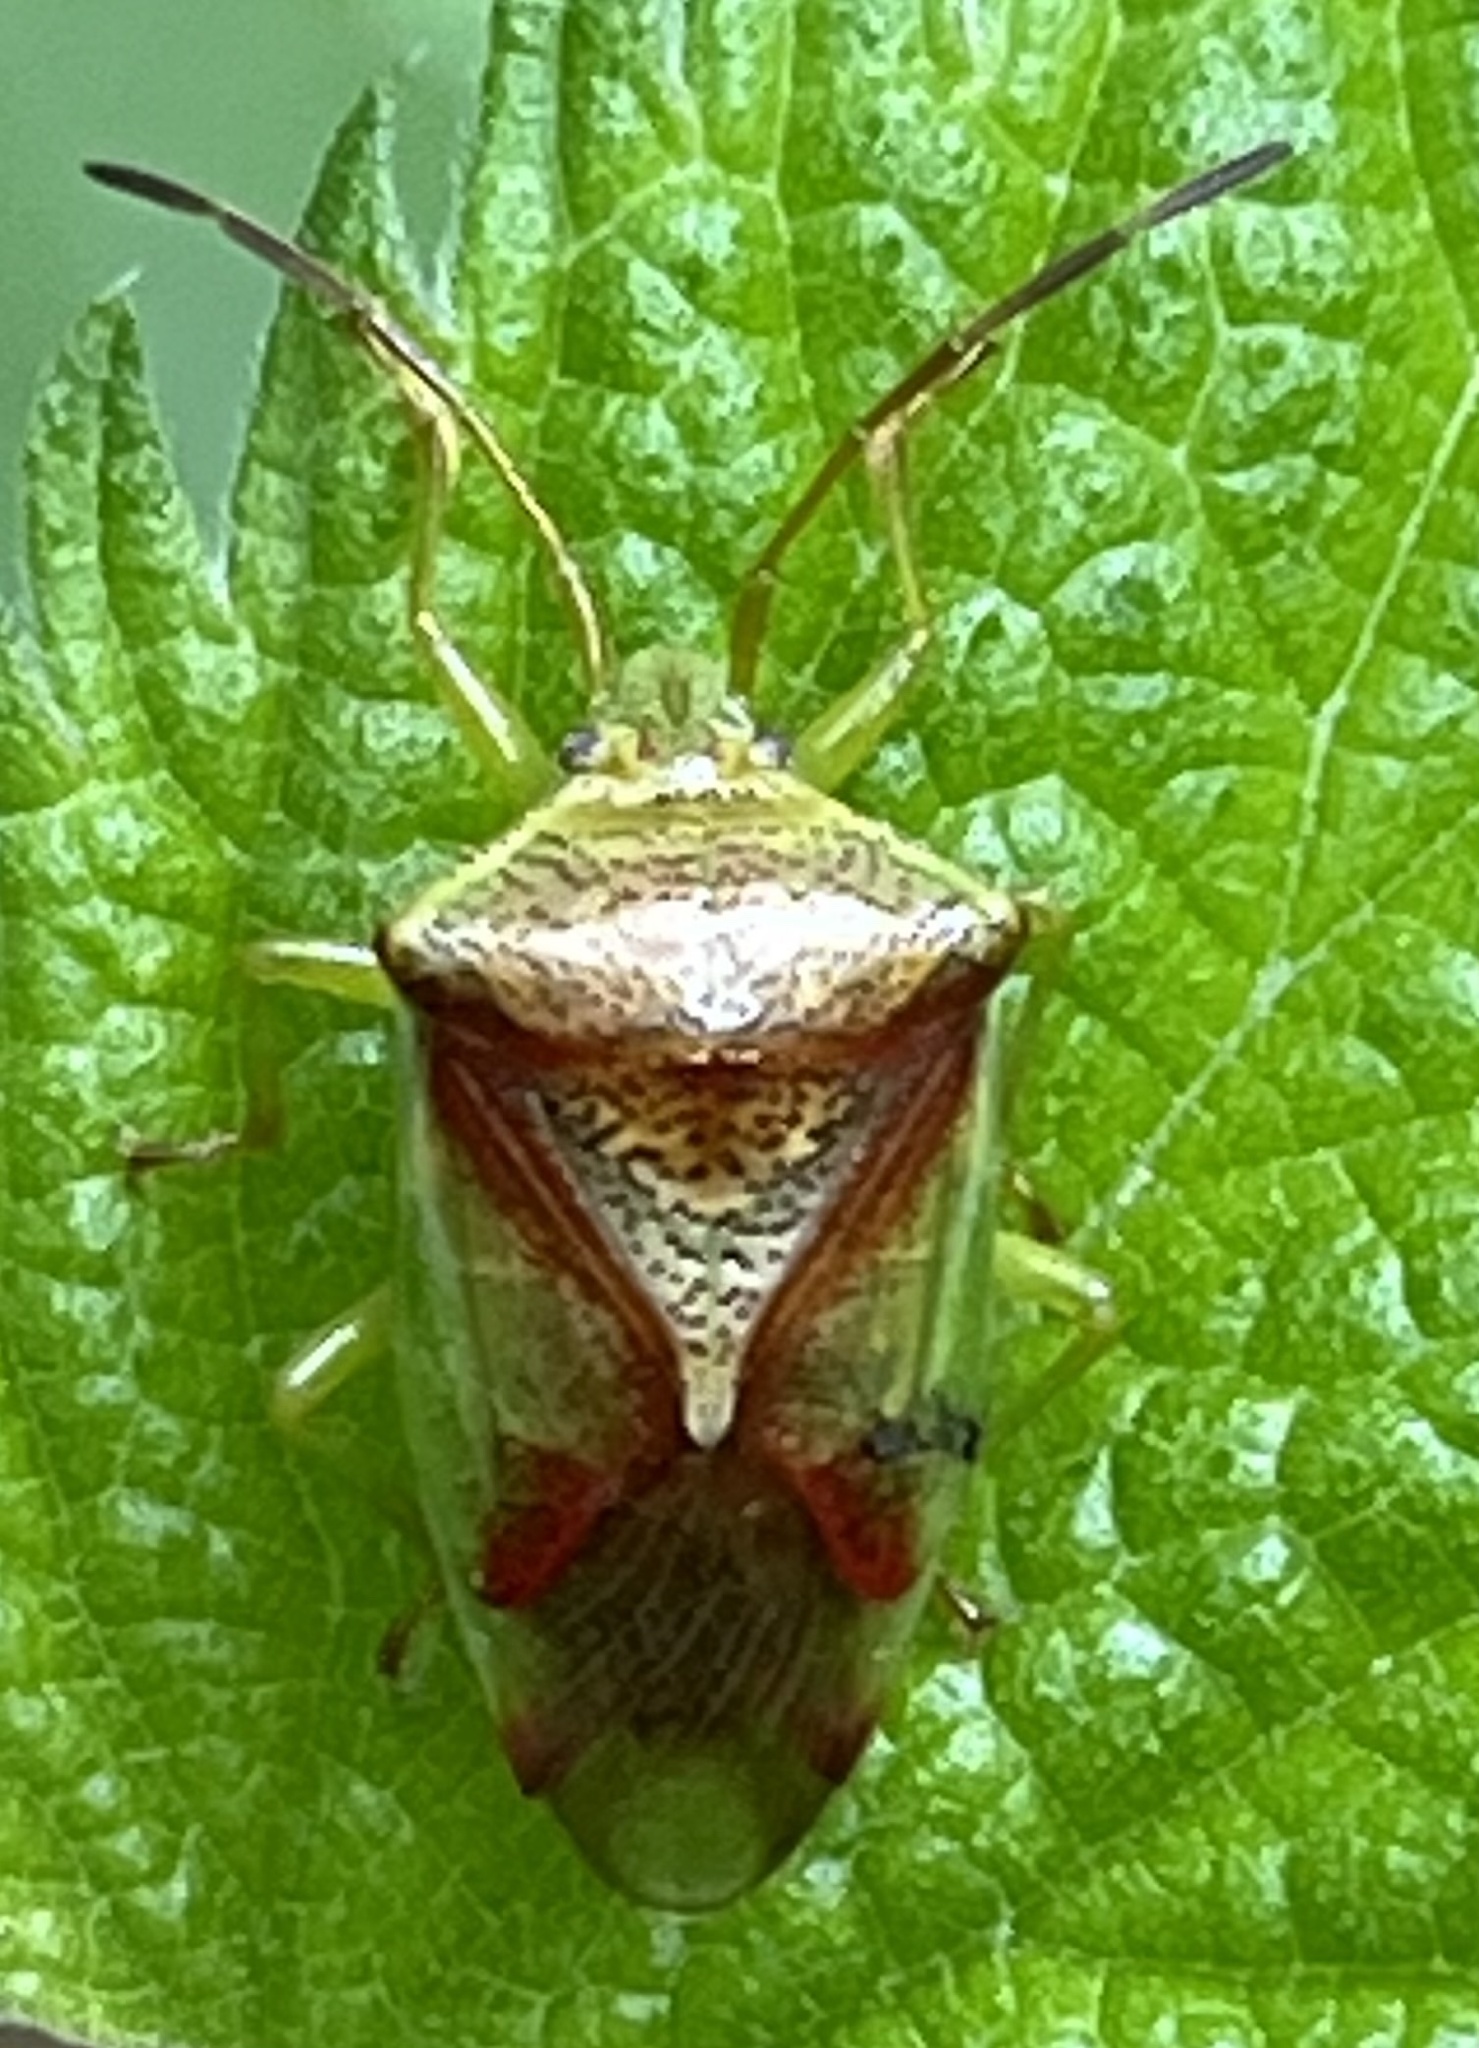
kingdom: Animalia
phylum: Arthropoda
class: Insecta
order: Hemiptera
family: Acanthosomatidae
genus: Elasmostethus
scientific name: Elasmostethus cruciatus
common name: Red-cross shield bug
